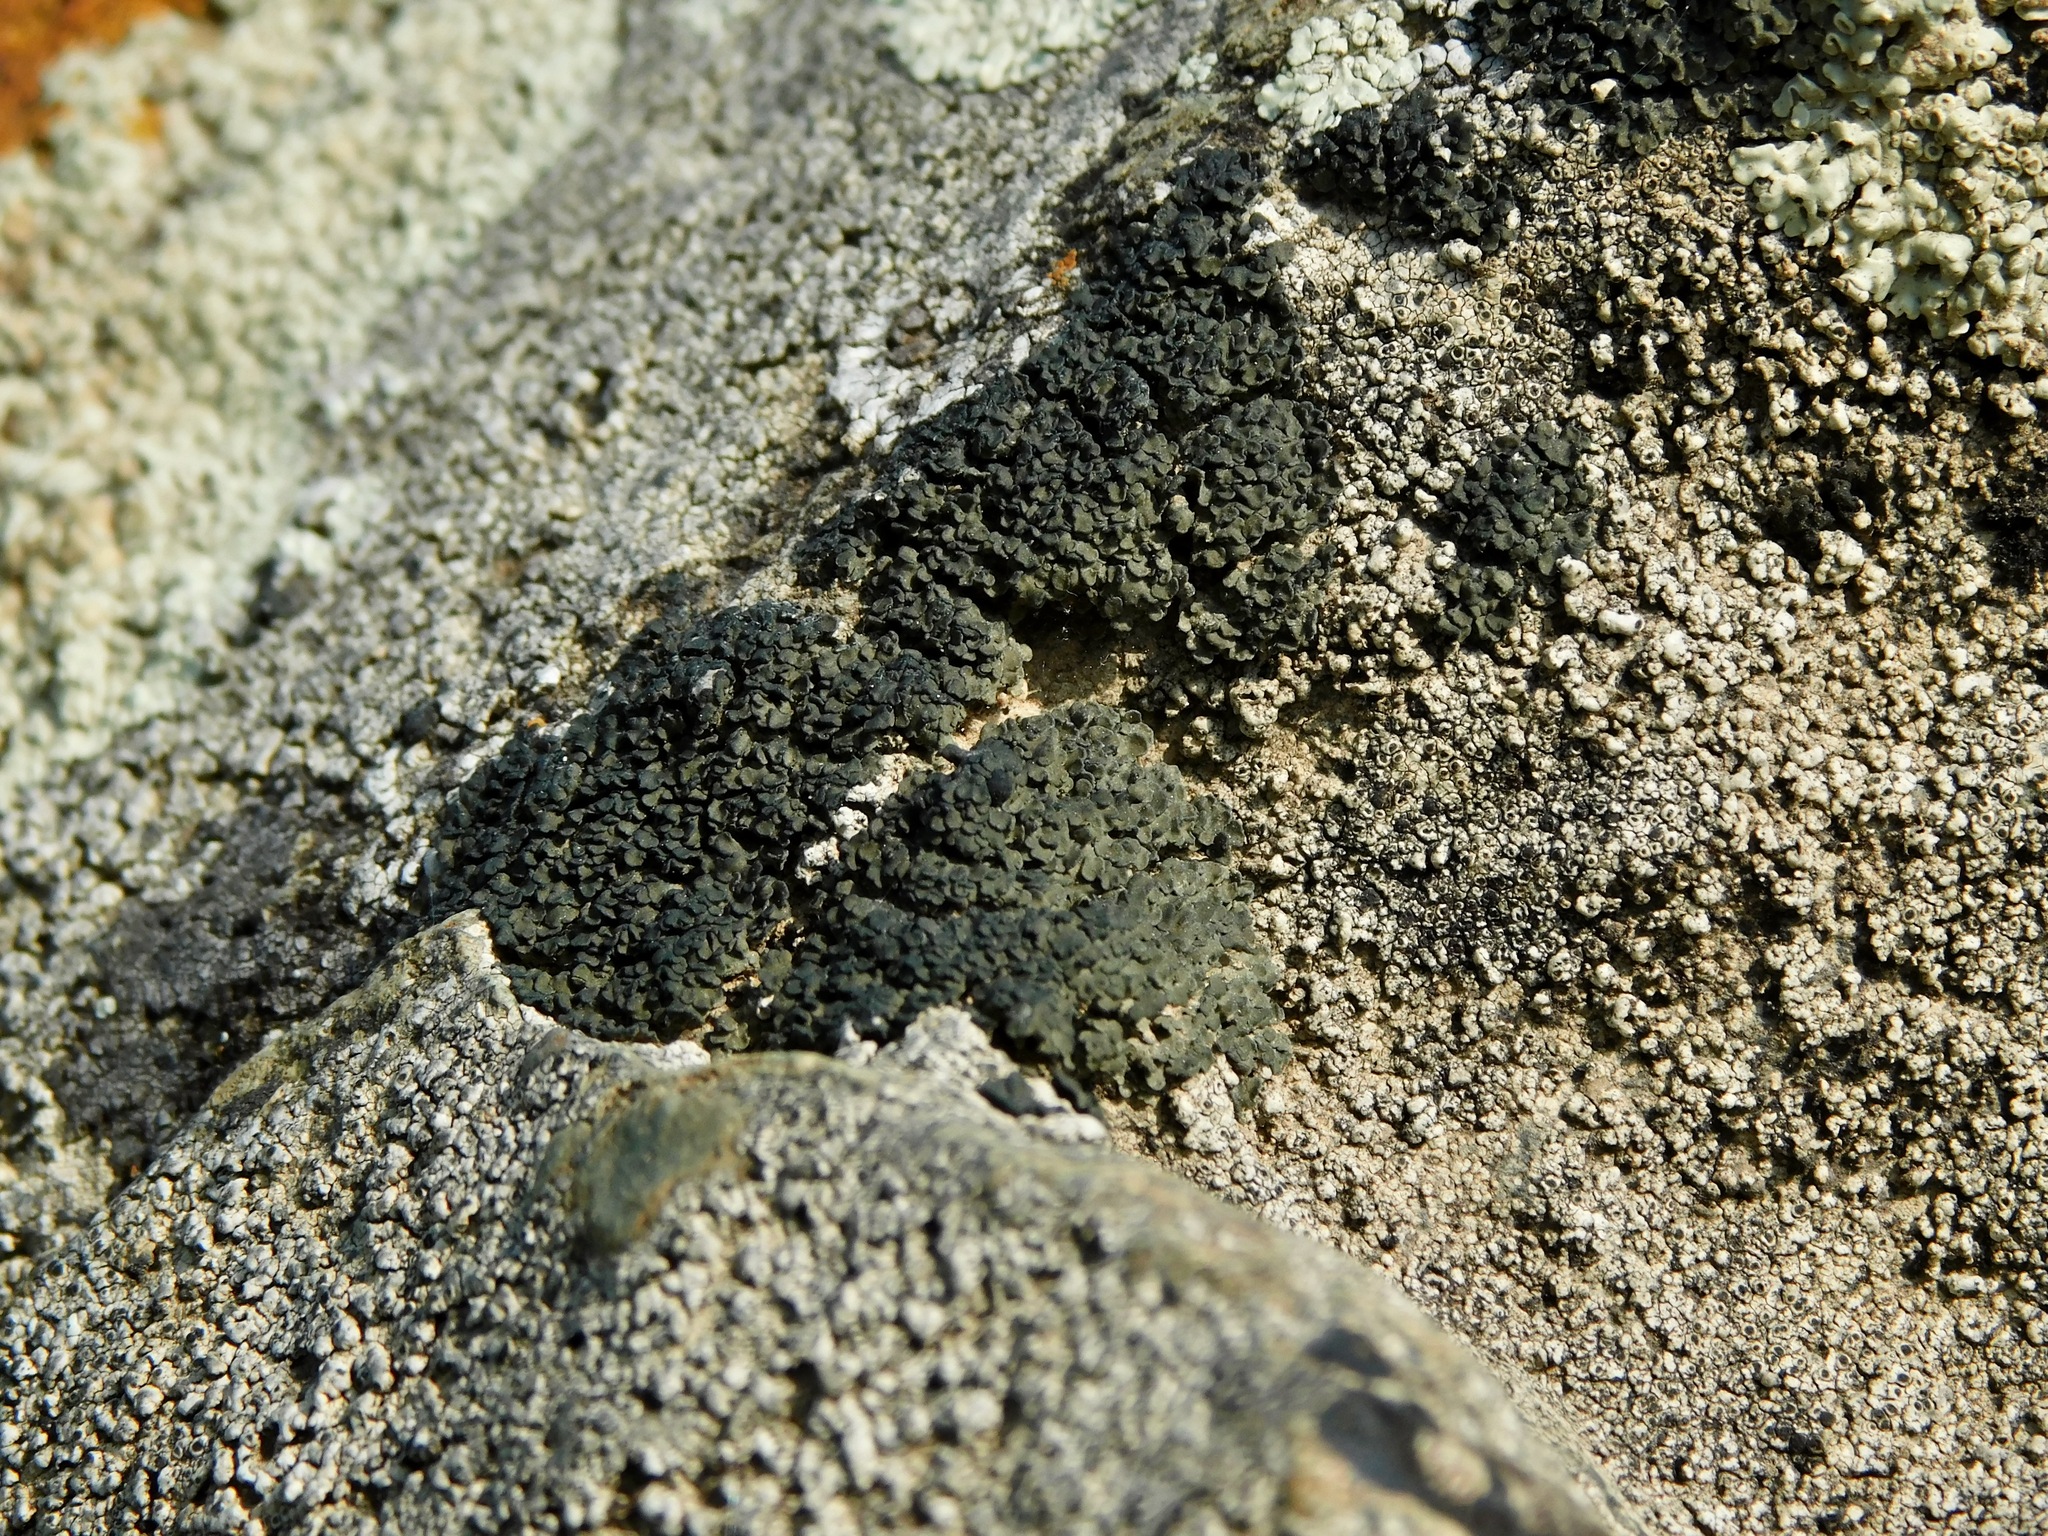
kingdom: Fungi
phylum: Ascomycota
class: Lecanoromycetes
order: Lecanorales
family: Psoraceae
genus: Psorula
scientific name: Psorula rufonigra
